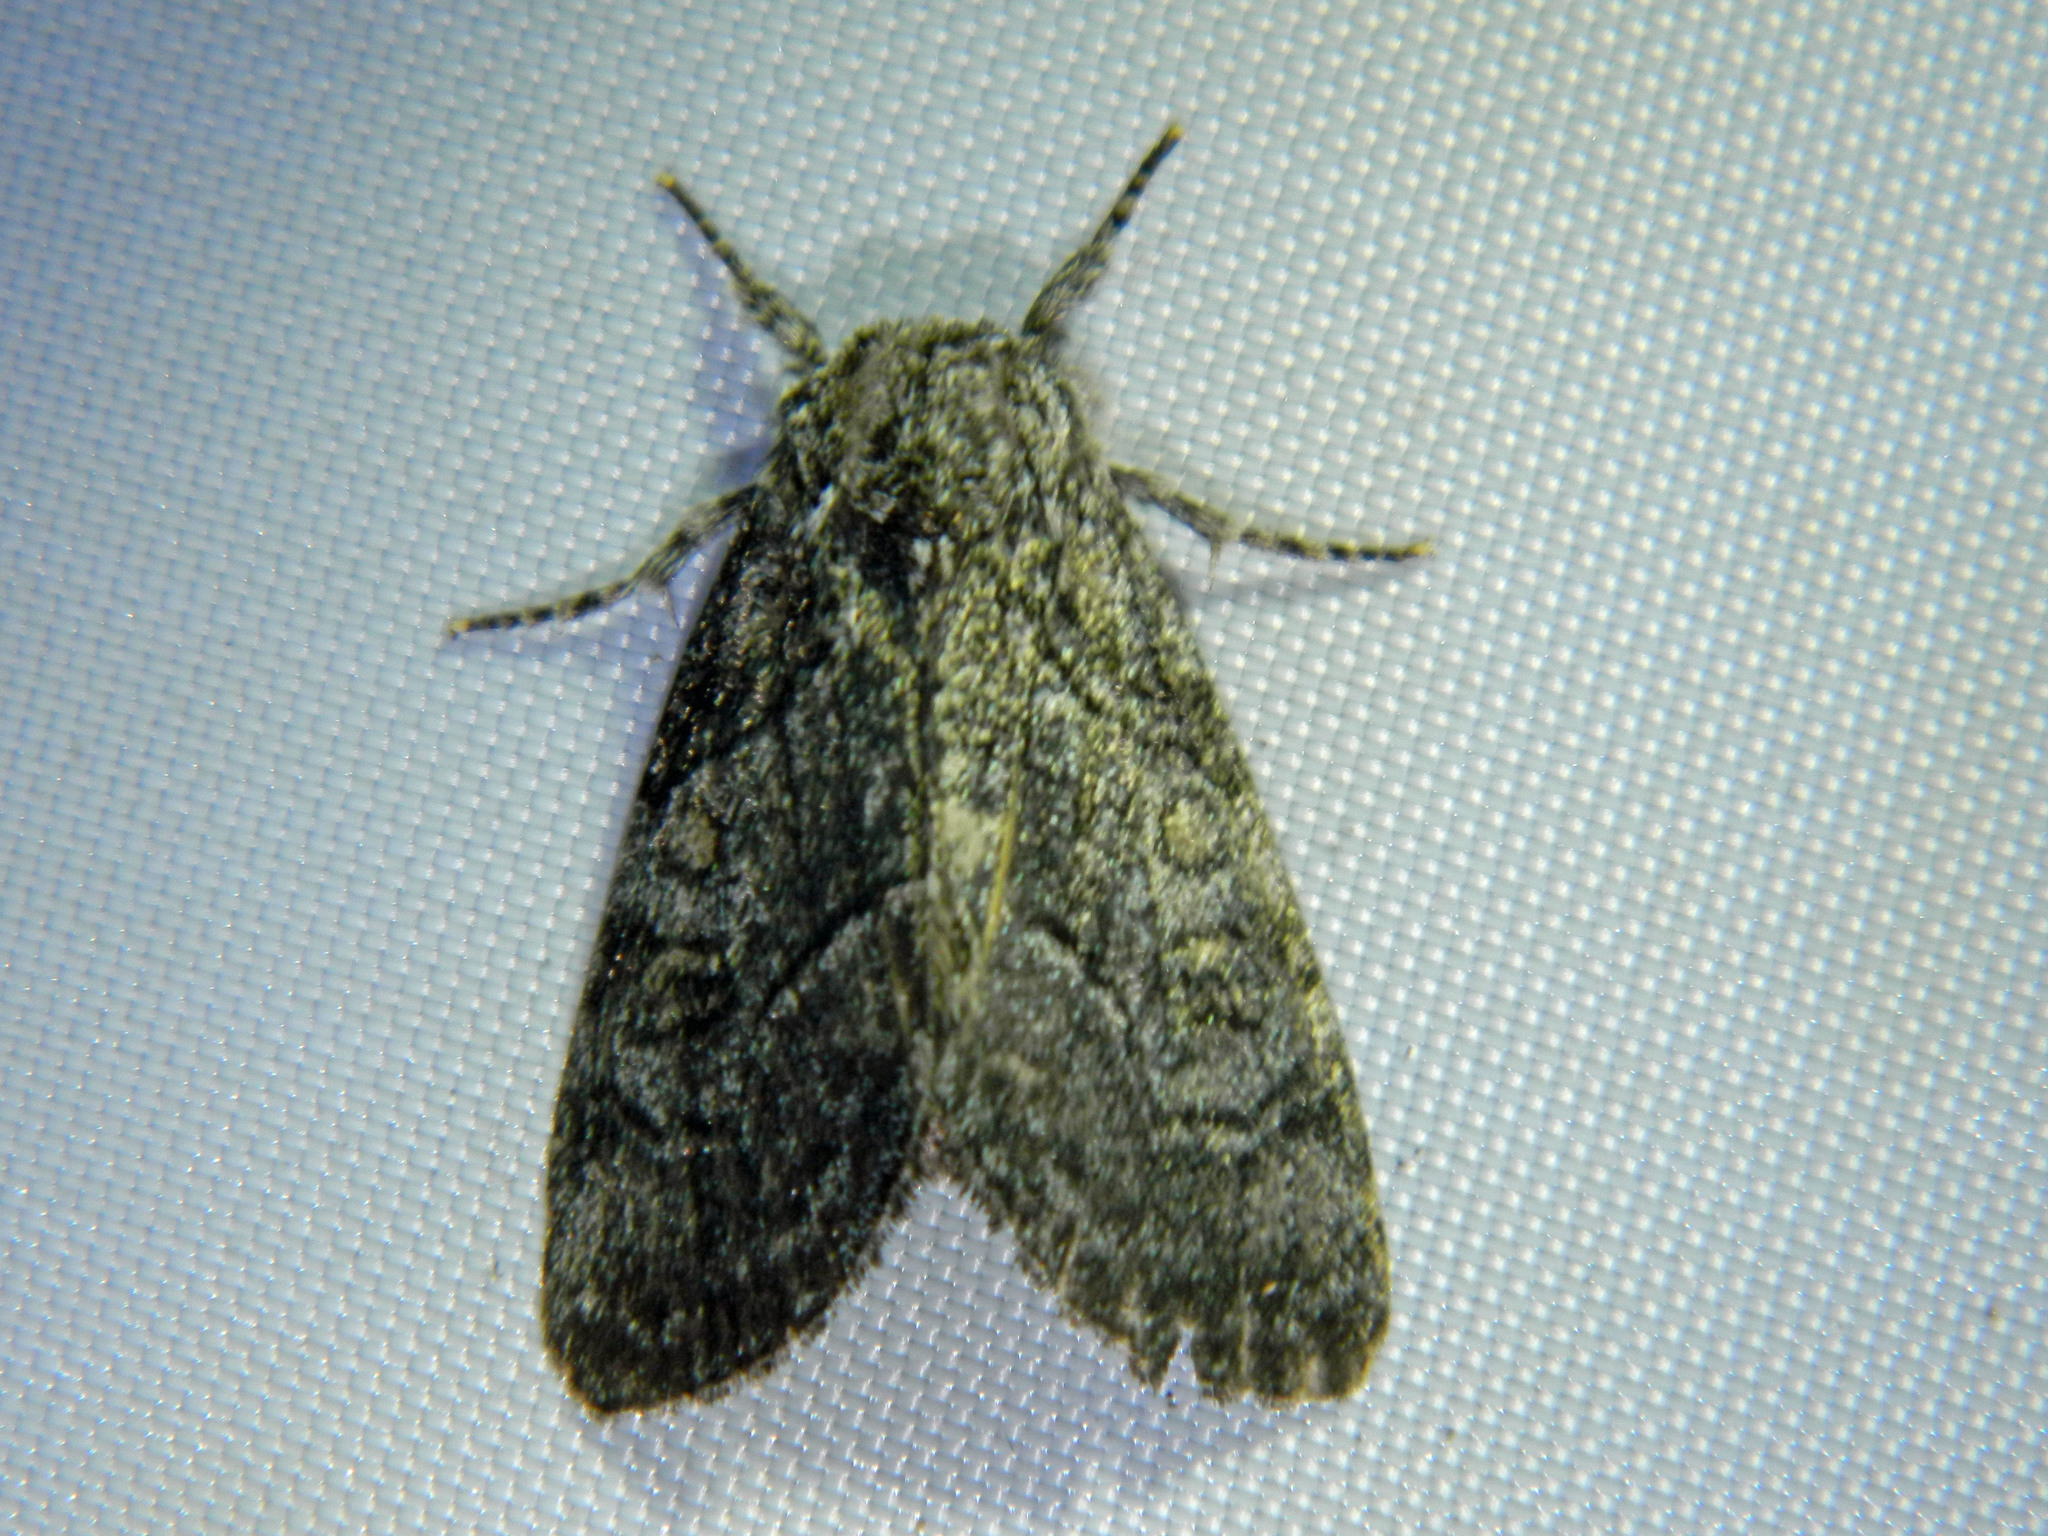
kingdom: Animalia
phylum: Arthropoda
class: Insecta
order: Lepidoptera
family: Noctuidae
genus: Raphia
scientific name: Raphia frater
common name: Brother
